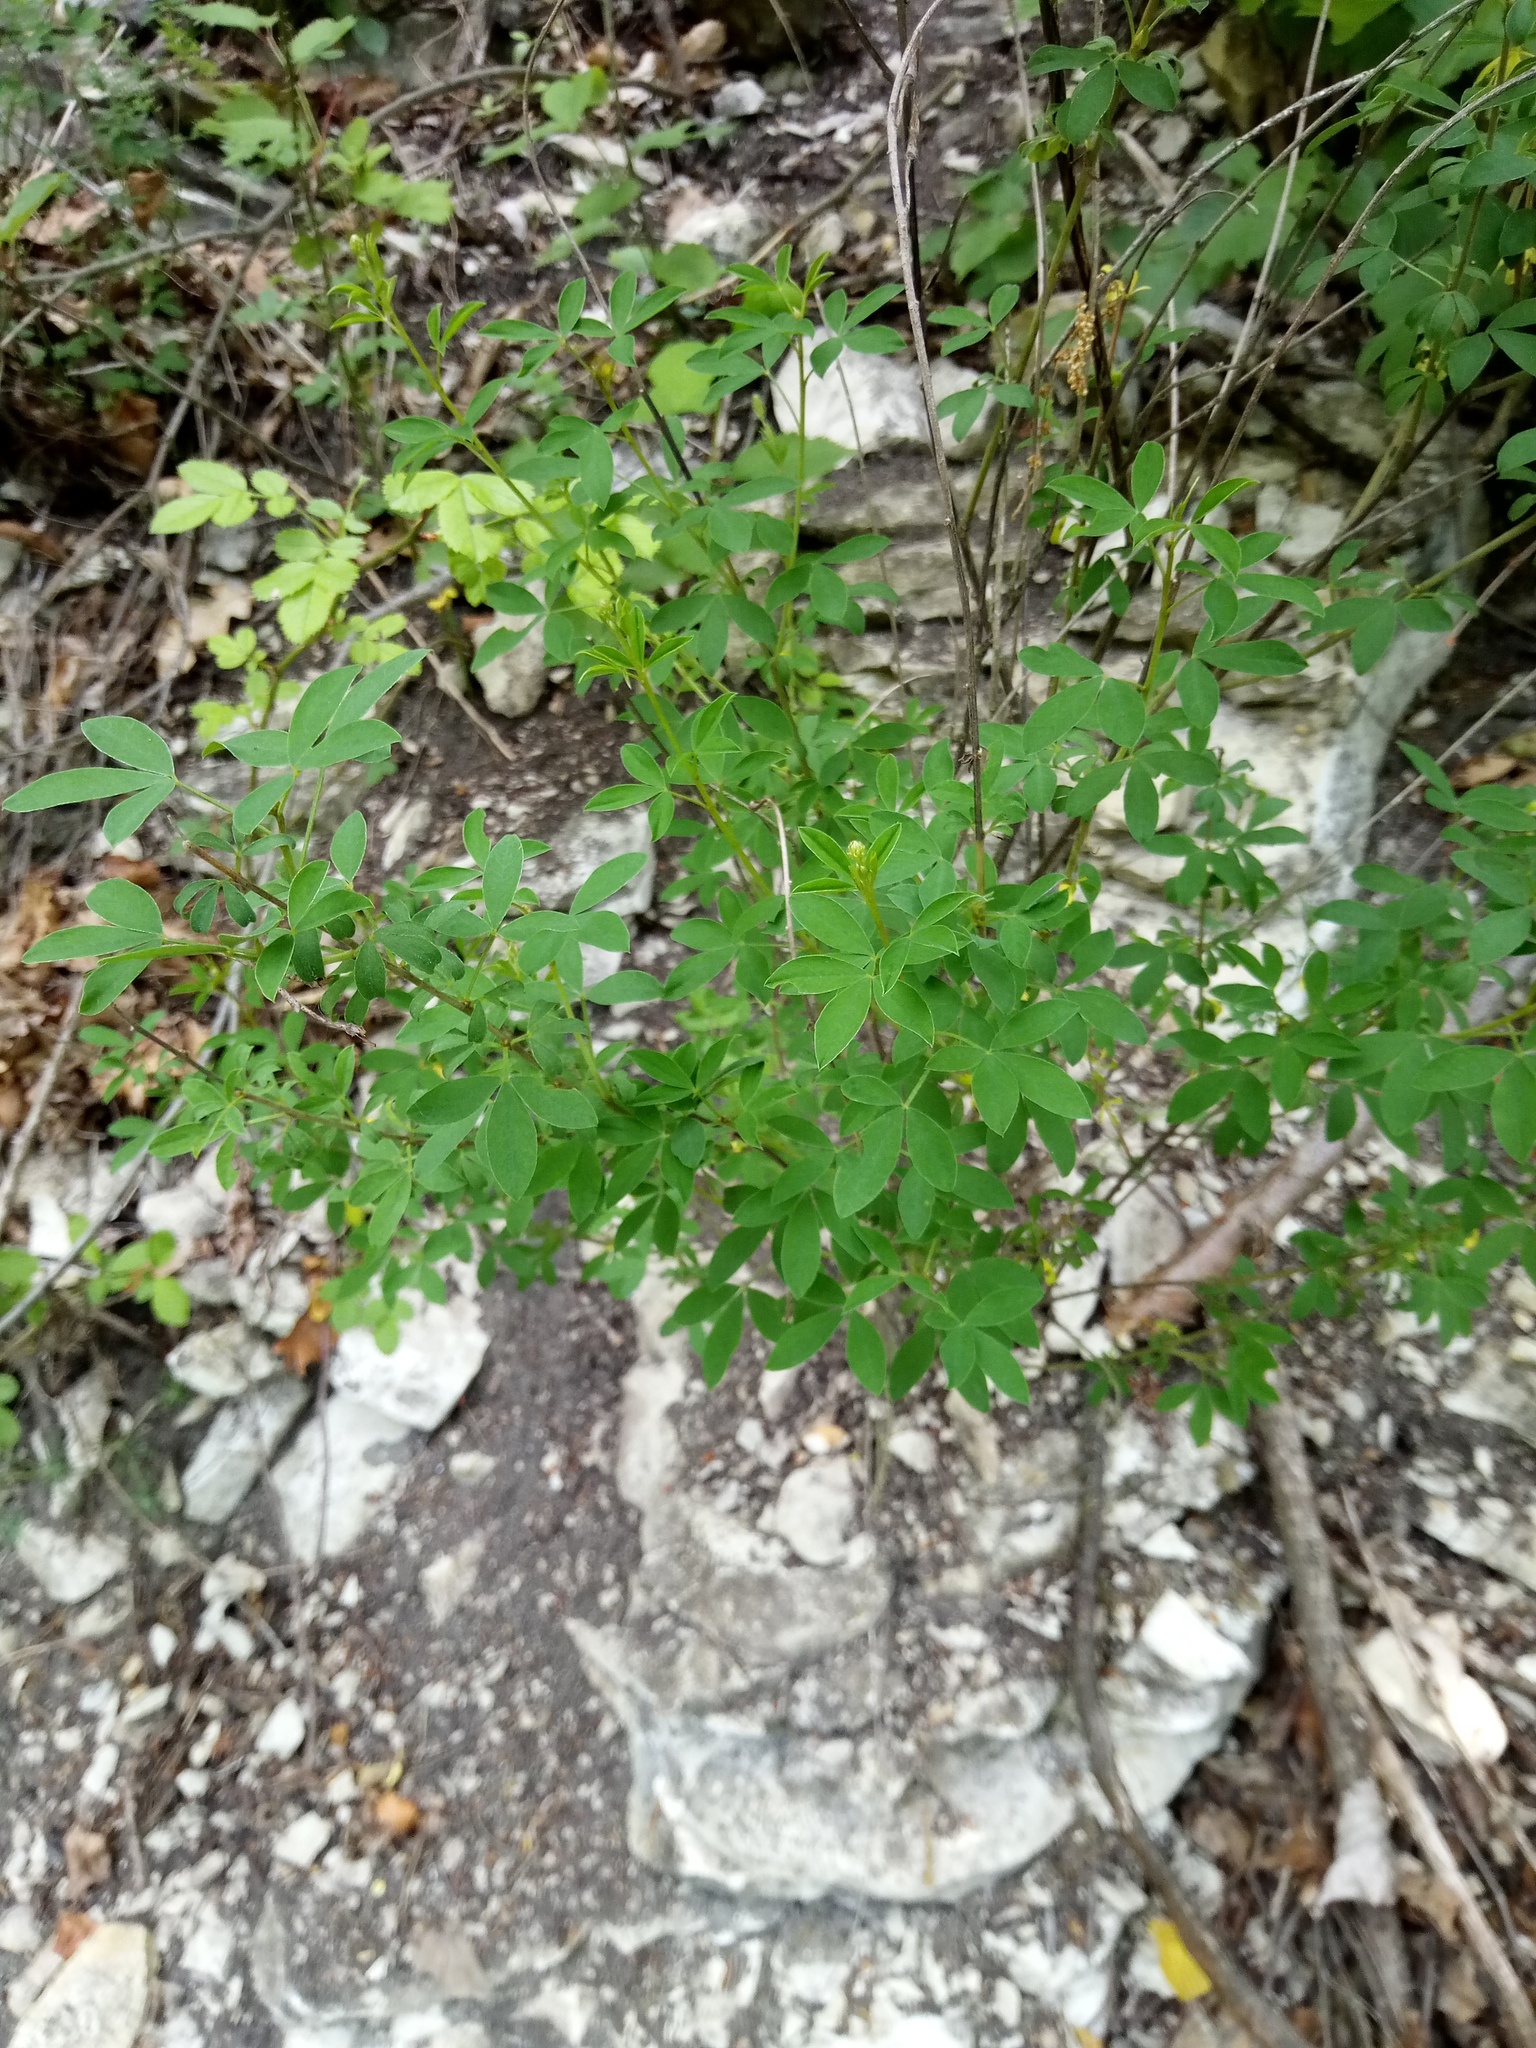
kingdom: Plantae
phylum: Tracheophyta
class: Magnoliopsida
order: Fabales
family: Fabaceae
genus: Cytisus
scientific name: Cytisus nigricans
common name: Black broom
